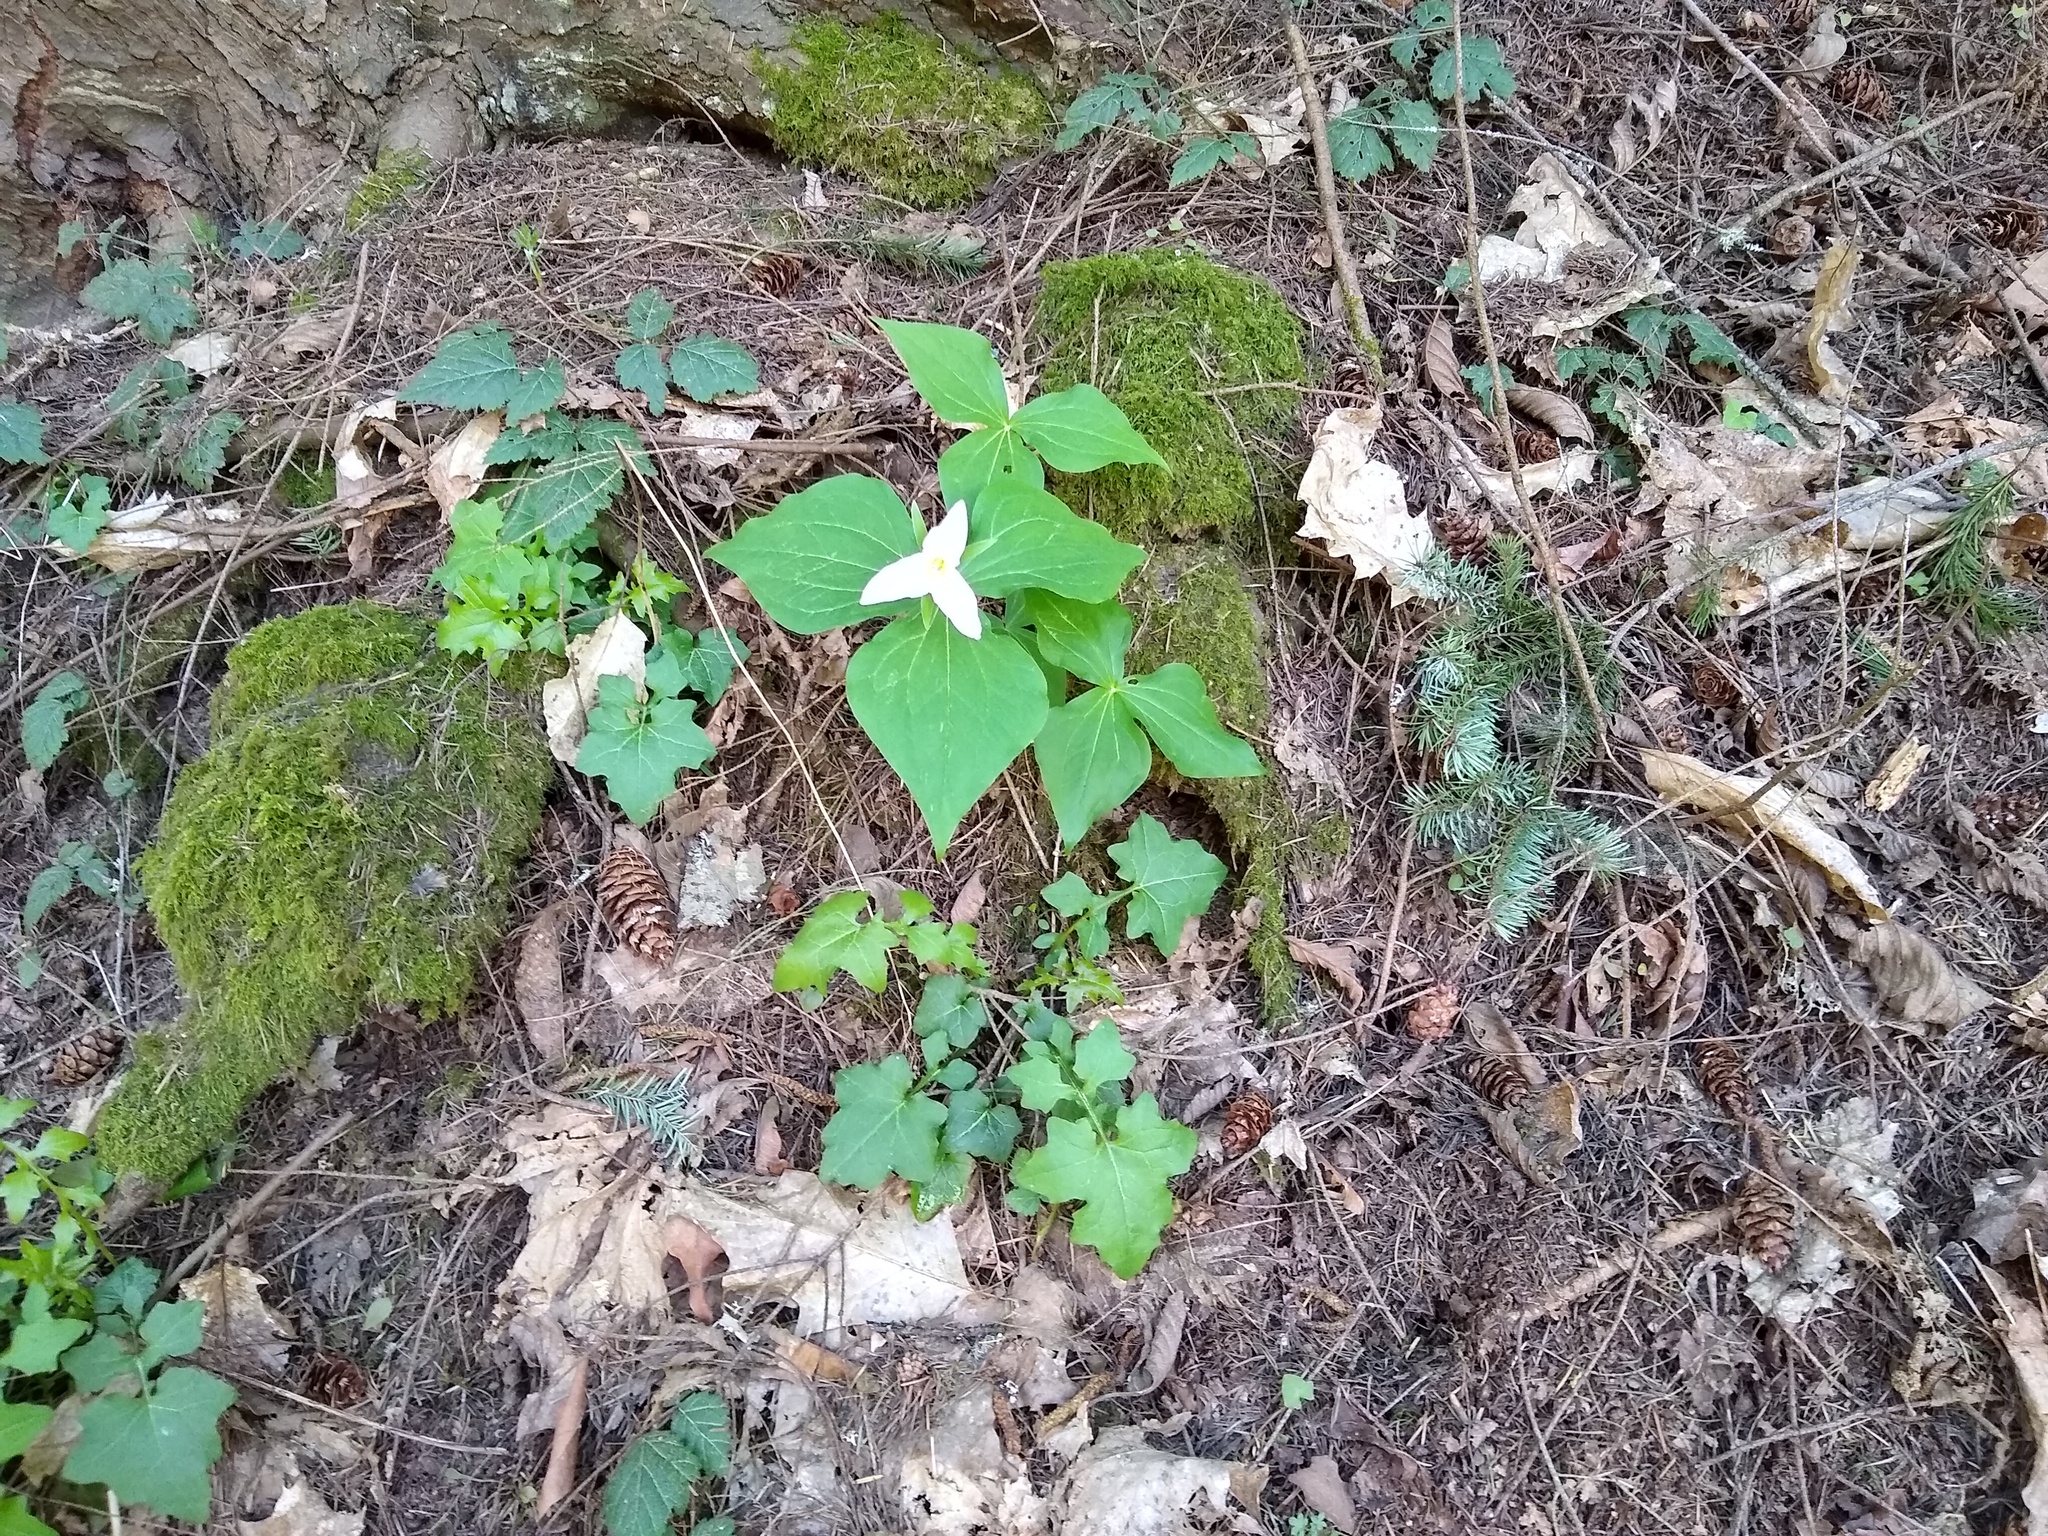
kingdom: Plantae
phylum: Tracheophyta
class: Liliopsida
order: Liliales
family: Melanthiaceae
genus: Trillium
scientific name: Trillium ovatum
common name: Pacific trillium
